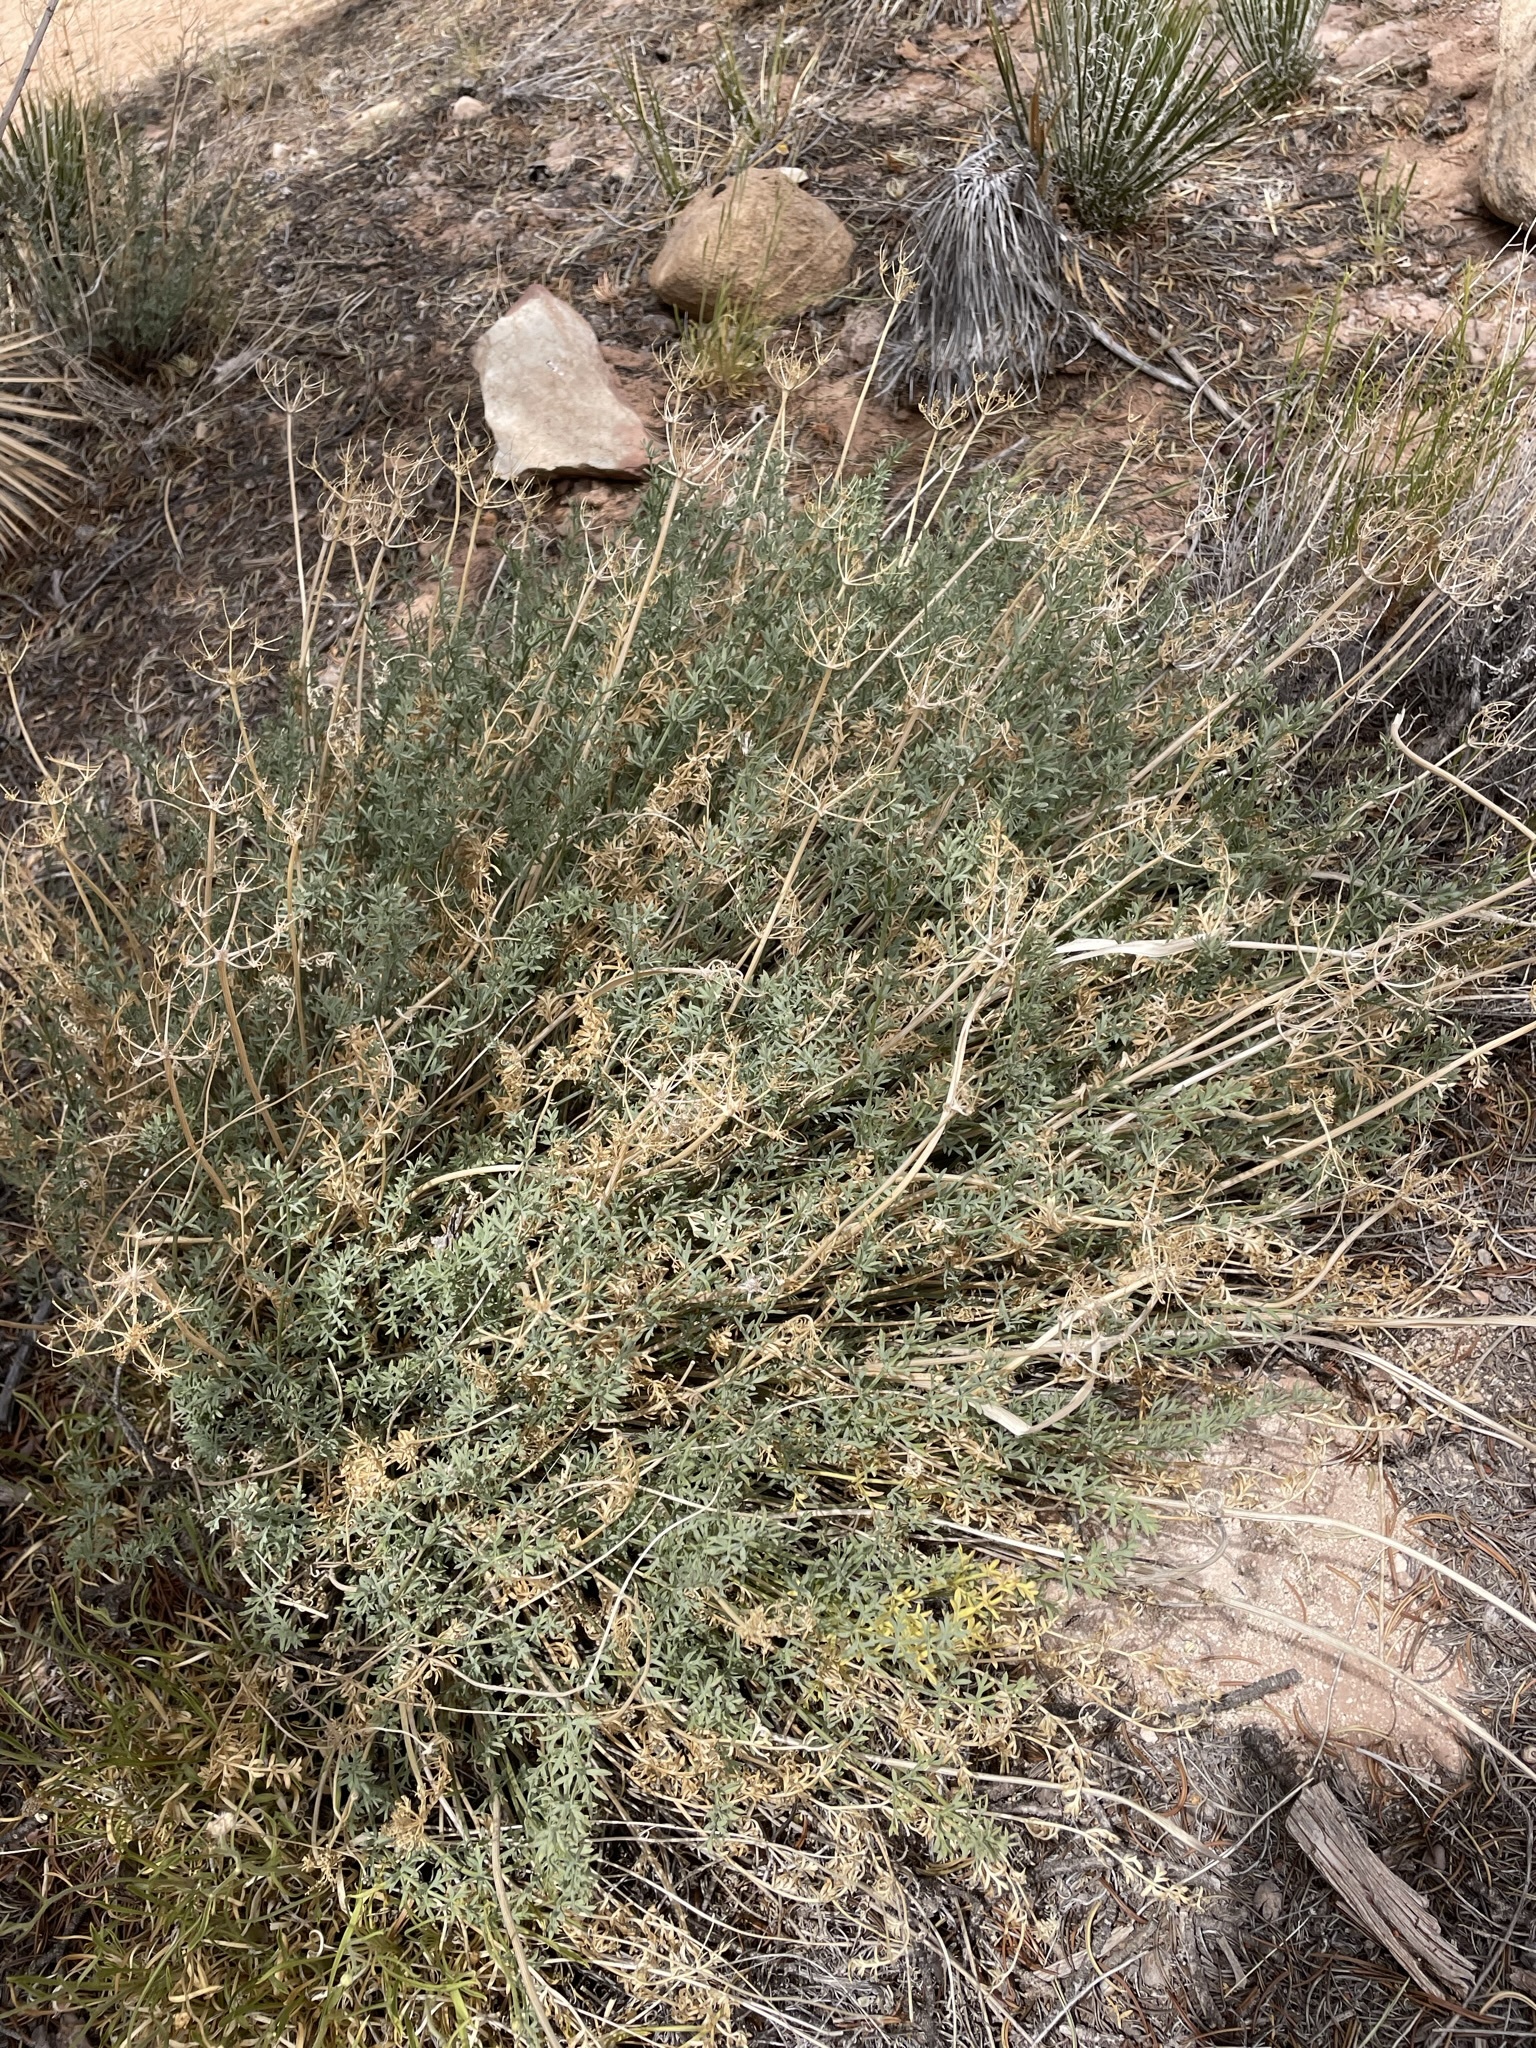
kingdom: Plantae
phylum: Tracheophyta
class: Magnoliopsida
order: Apiales
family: Apiaceae
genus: Lomatium
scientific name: Lomatium parryi
